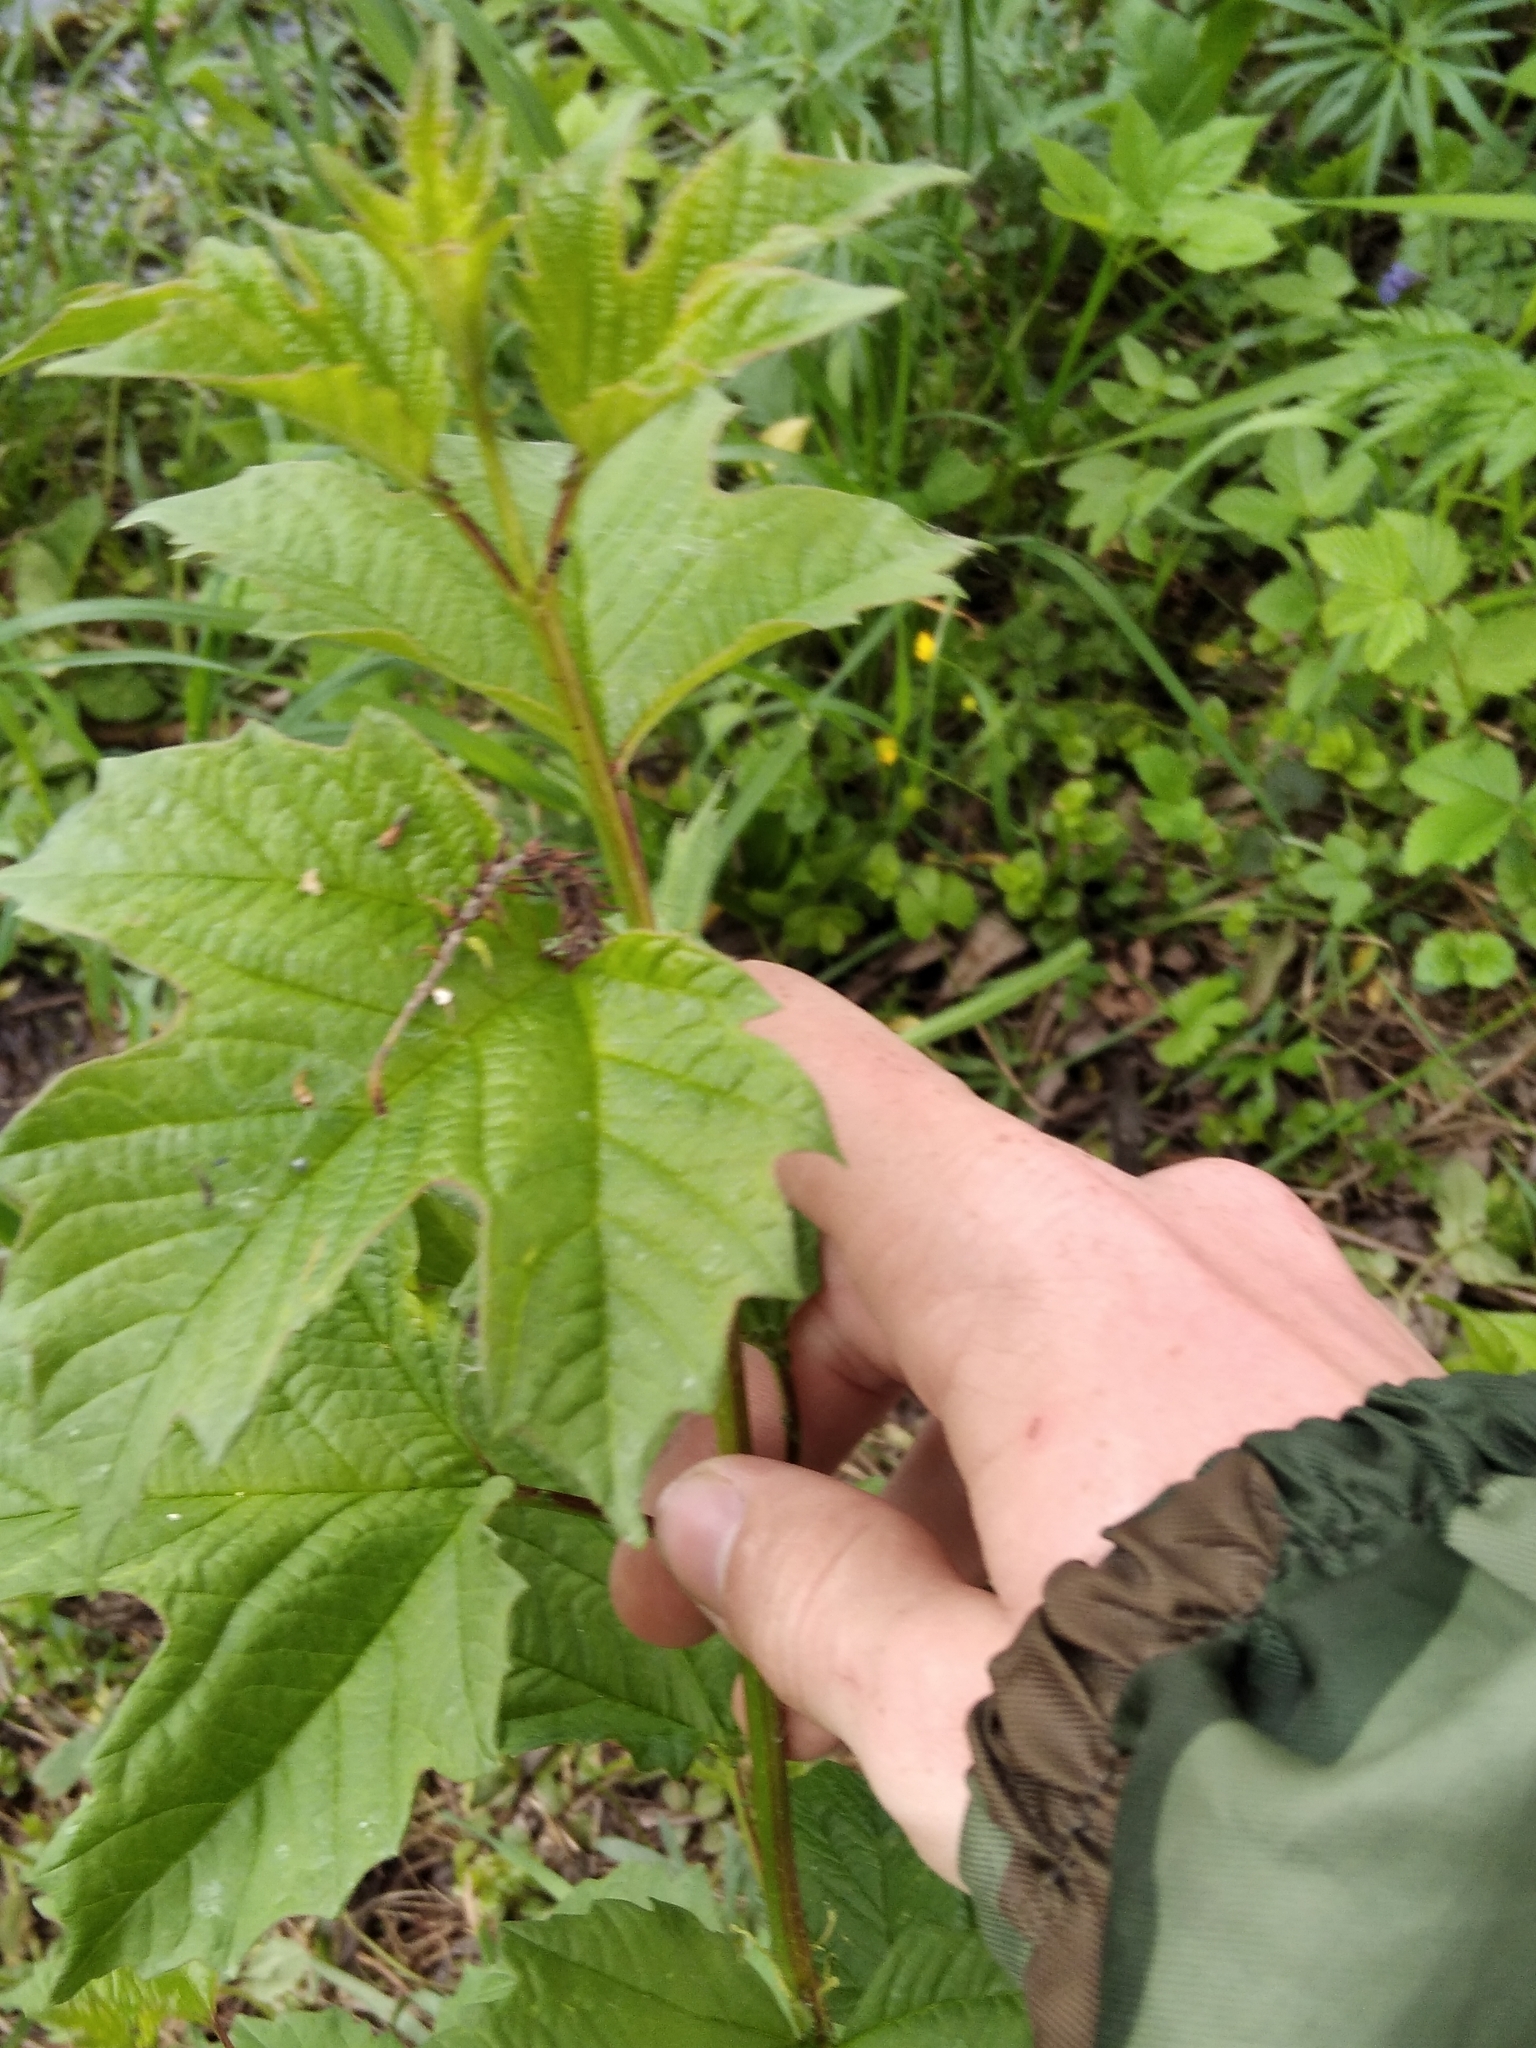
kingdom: Plantae
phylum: Tracheophyta
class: Magnoliopsida
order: Dipsacales
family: Viburnaceae
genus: Viburnum
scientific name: Viburnum opulus
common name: Guelder-rose
